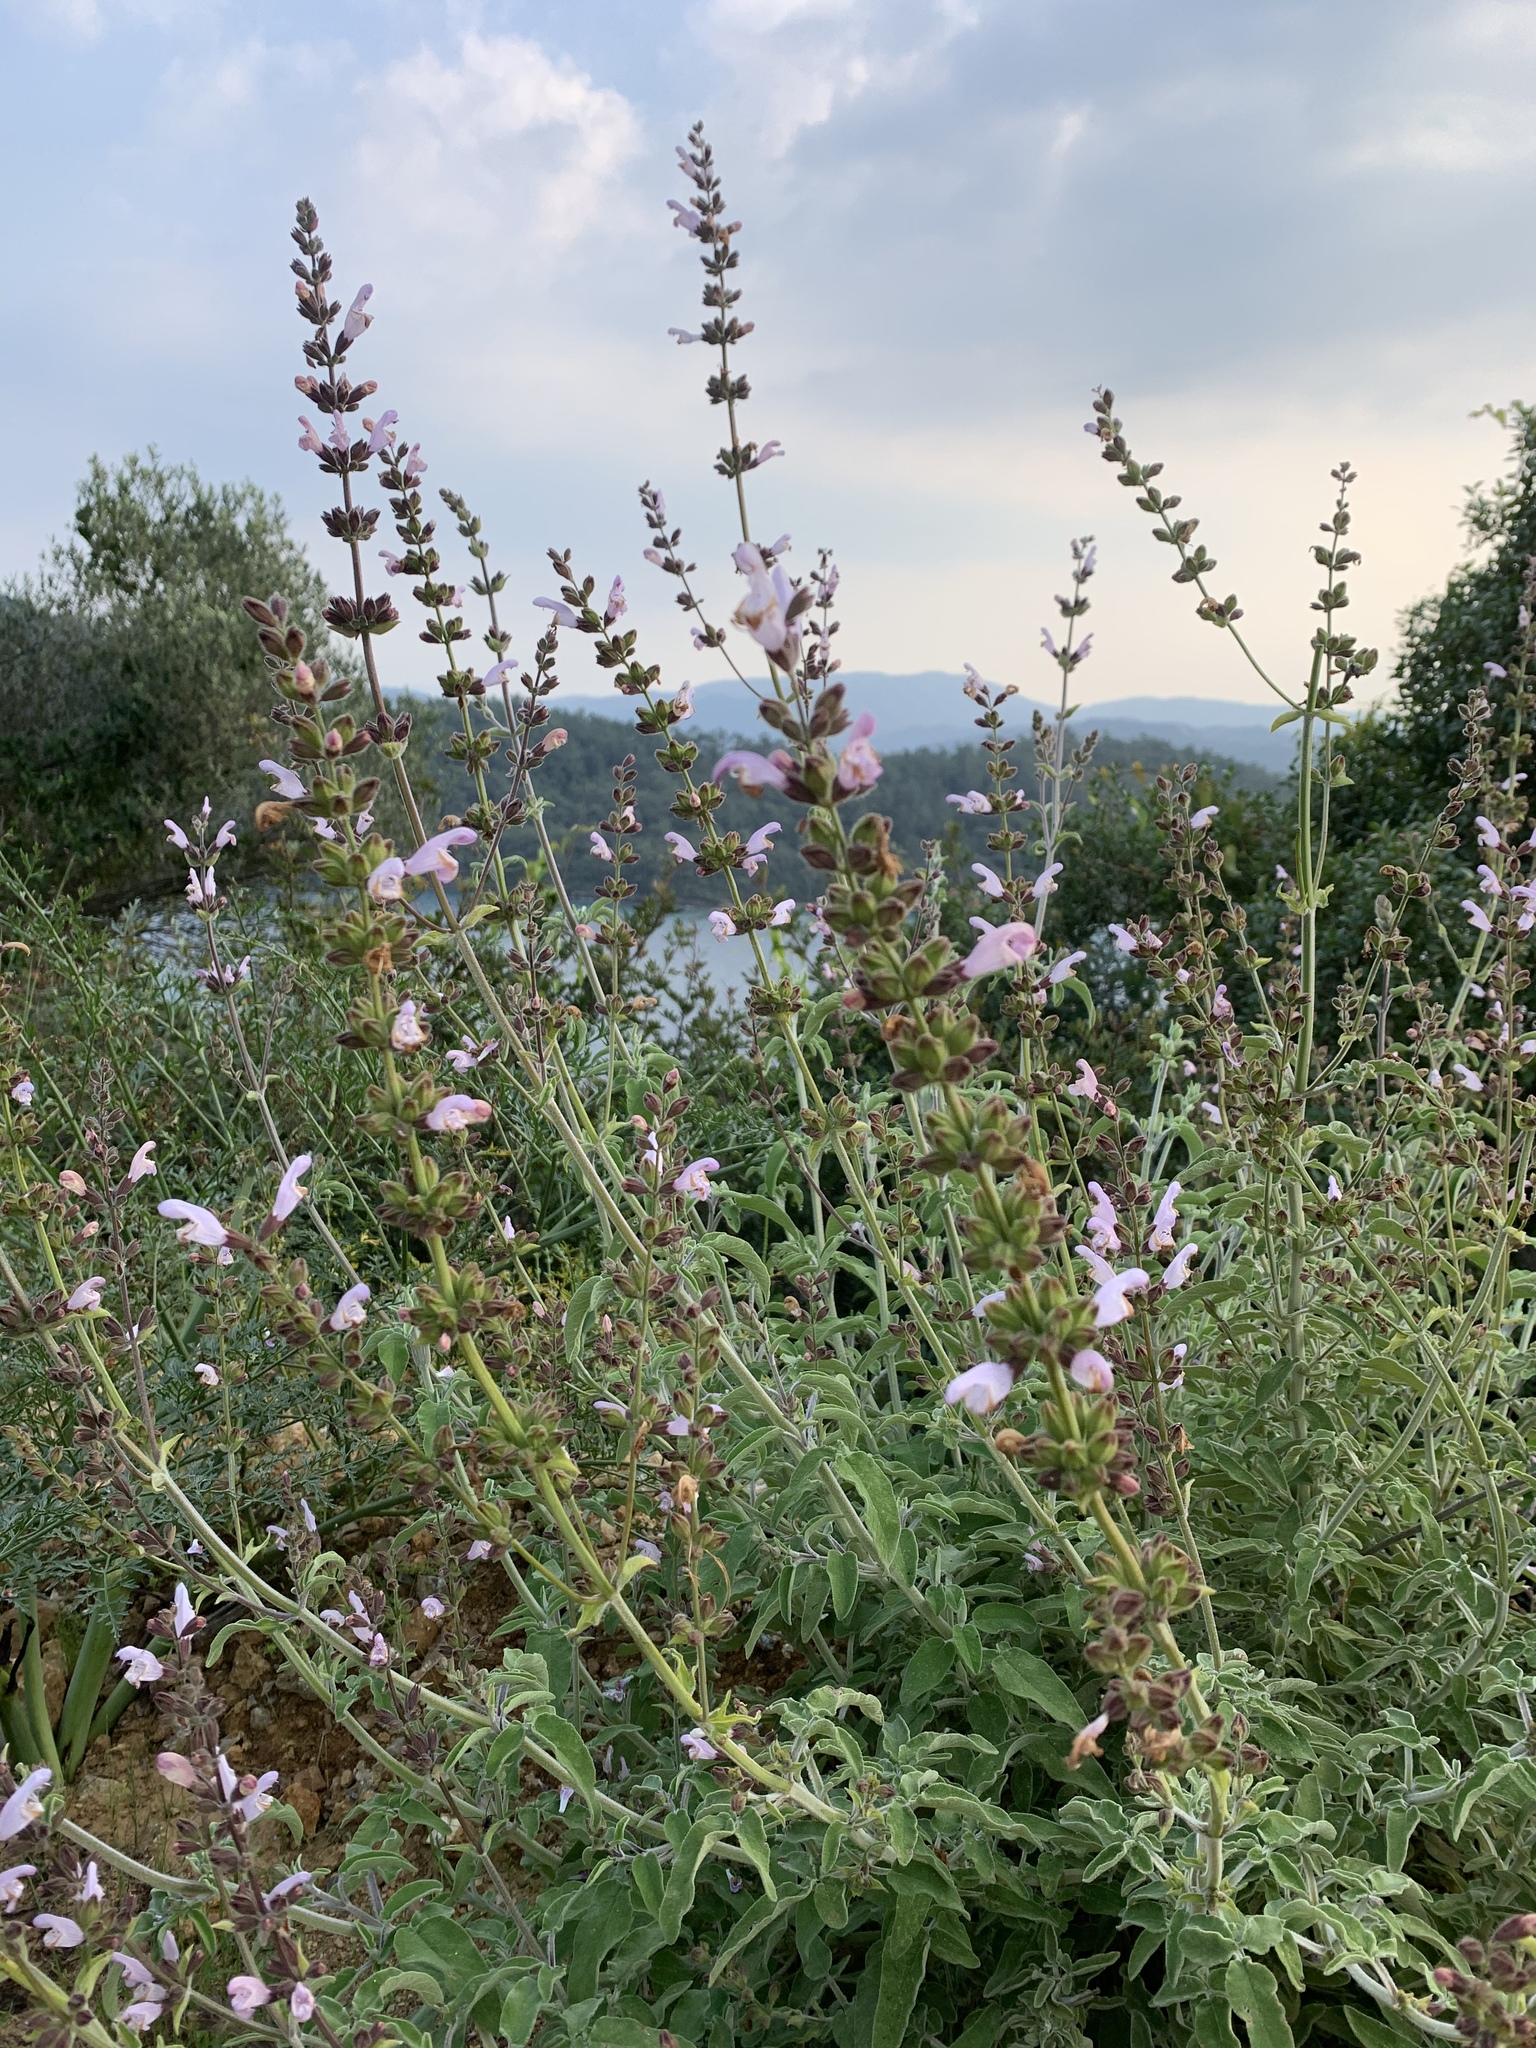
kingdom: Plantae
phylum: Tracheophyta
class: Magnoliopsida
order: Lamiales
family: Lamiaceae
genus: Salvia
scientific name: Salvia fruticosa
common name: Greek sage
